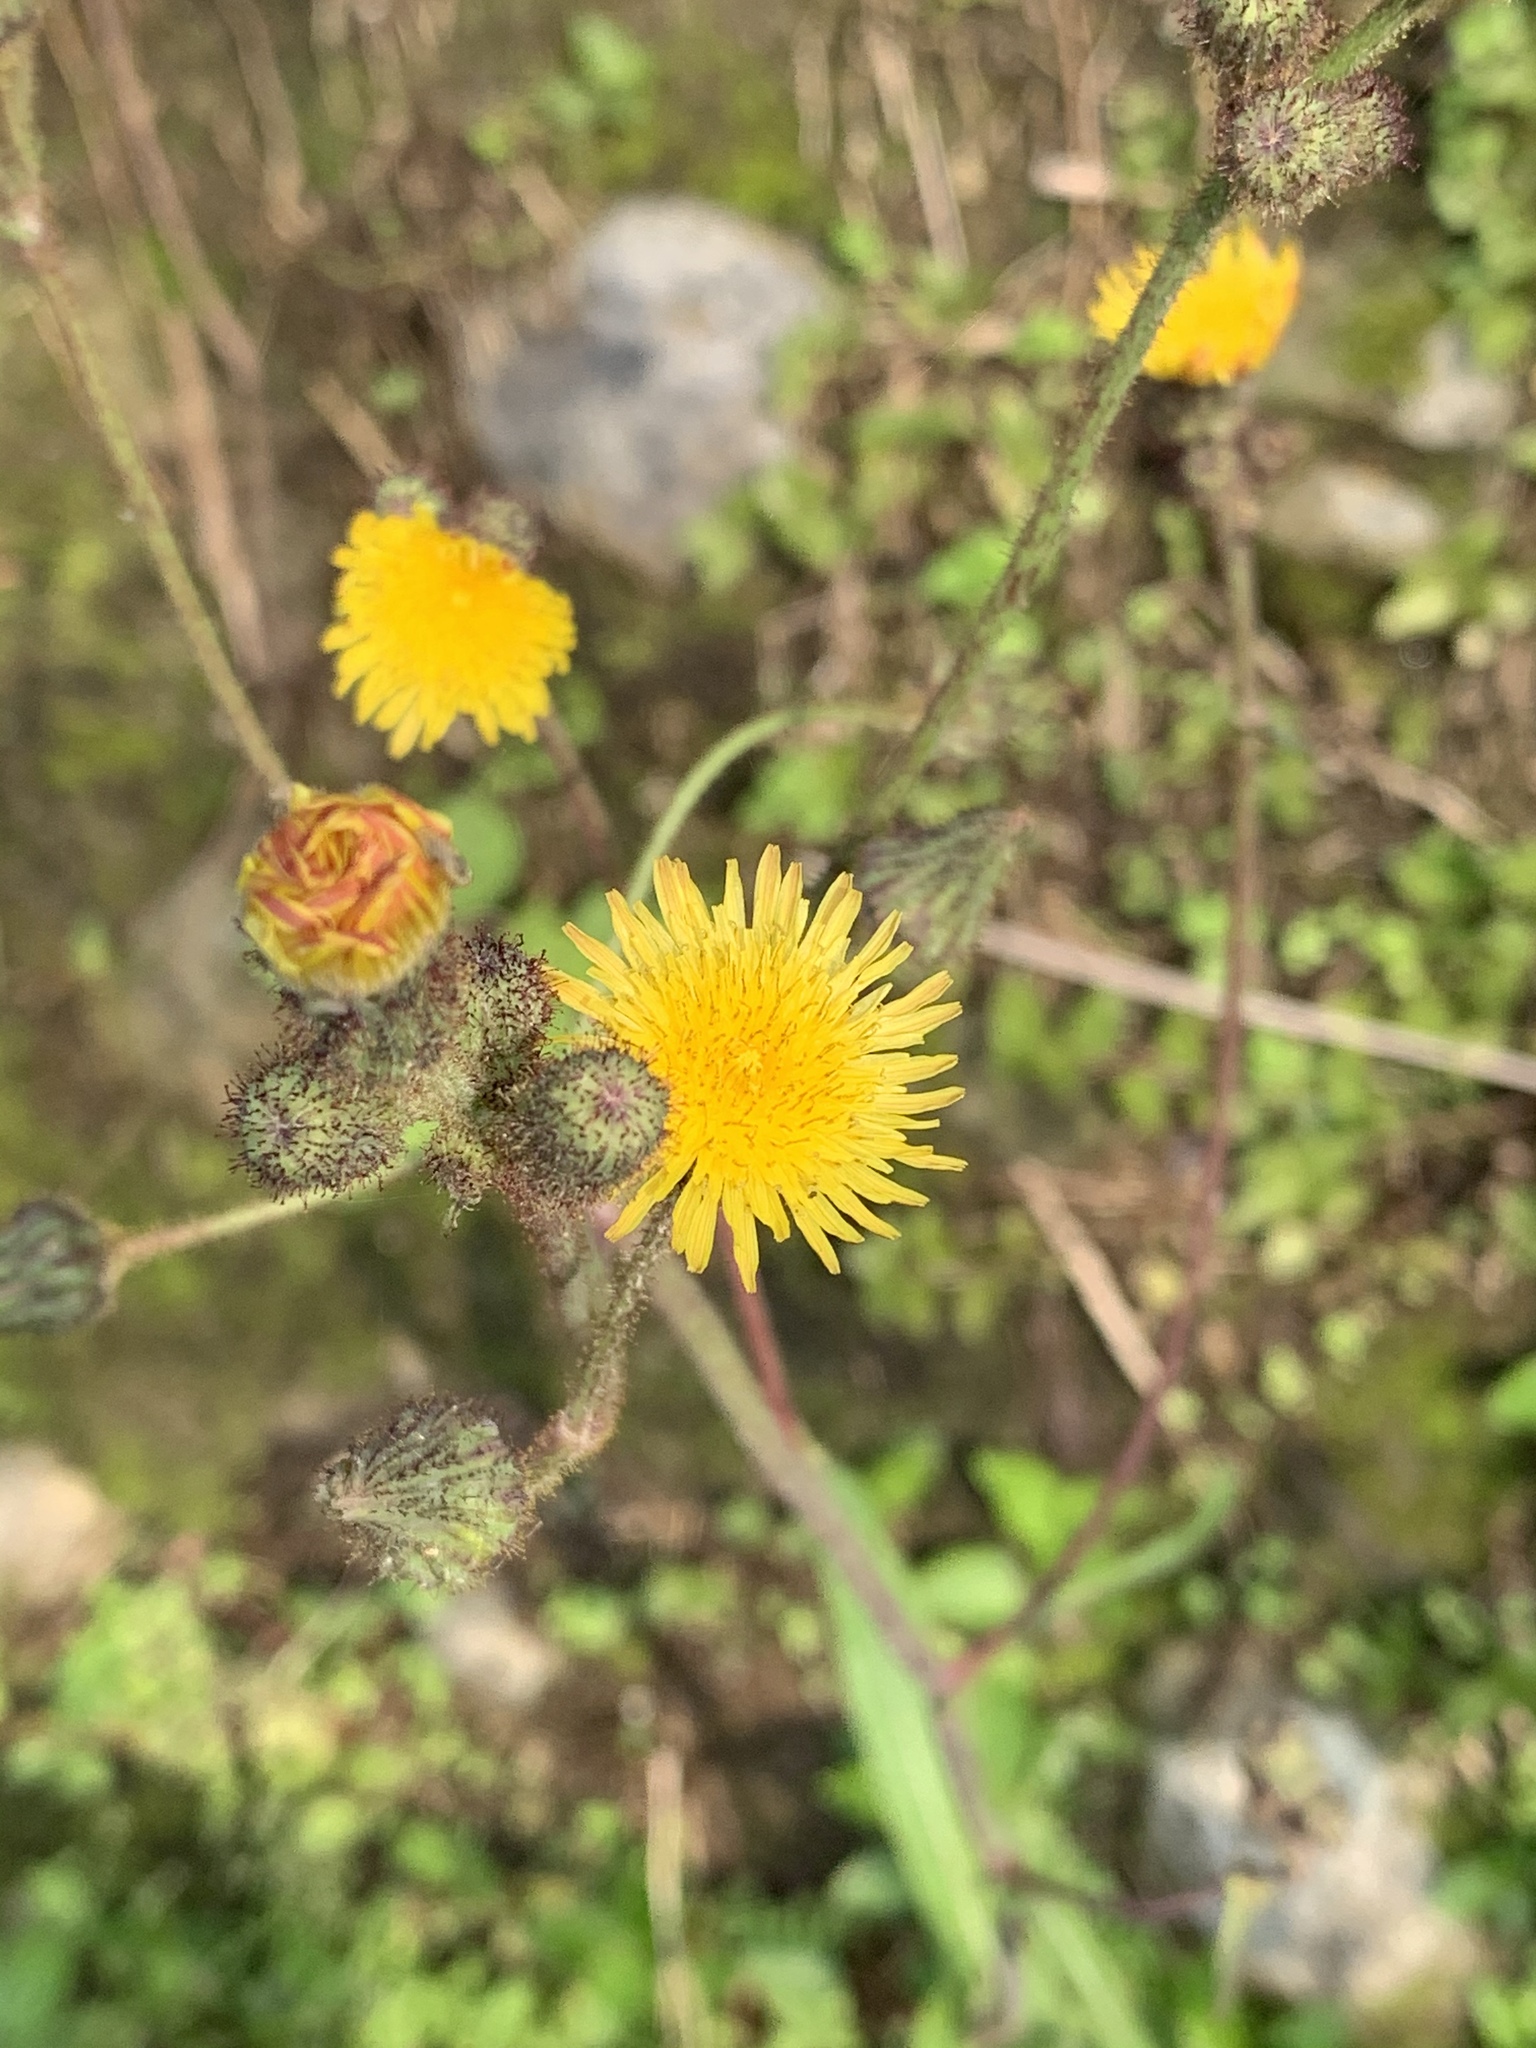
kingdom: Plantae
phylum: Tracheophyta
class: Magnoliopsida
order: Asterales
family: Asteraceae
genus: Sonchus
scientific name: Sonchus arvensis
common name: Perennial sow-thistle
